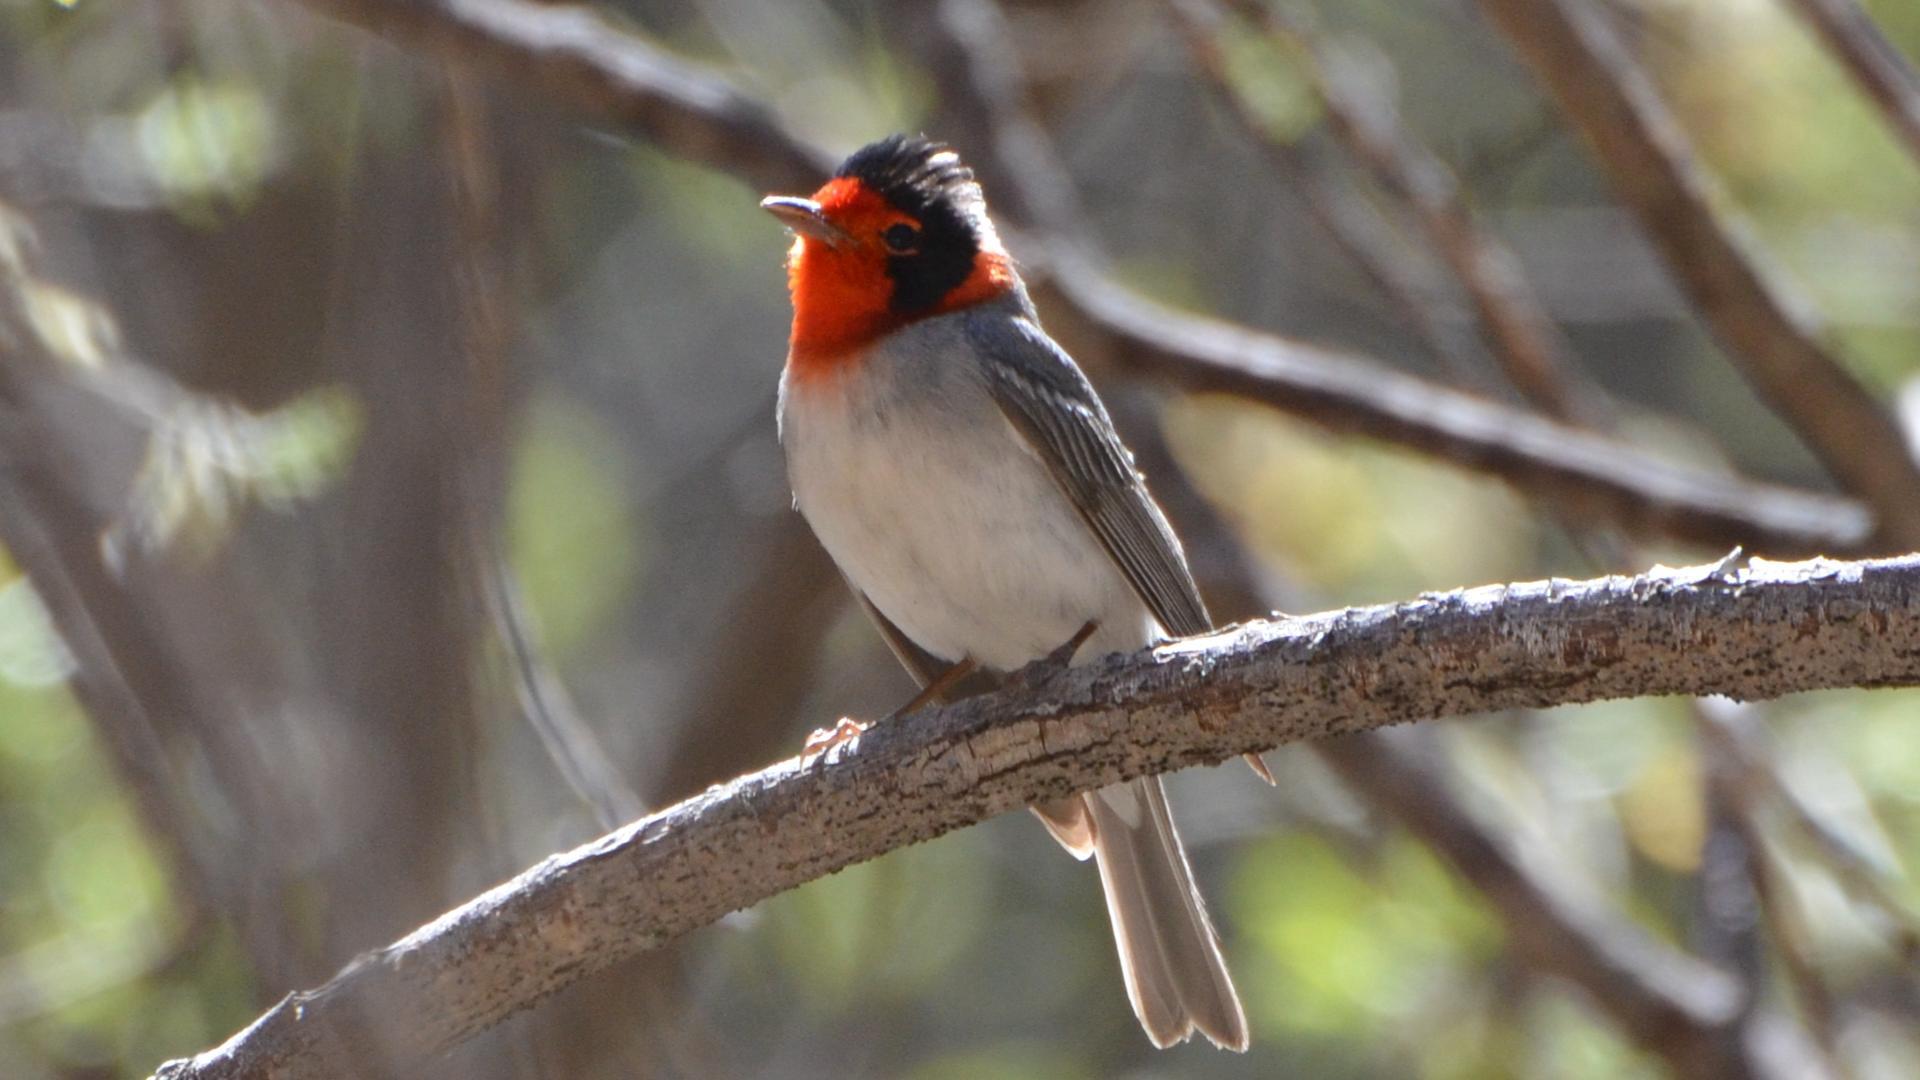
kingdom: Animalia
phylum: Chordata
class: Aves
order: Passeriformes
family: Parulidae
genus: Cardellina
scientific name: Cardellina rubrifrons
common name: Red-faced warbler
